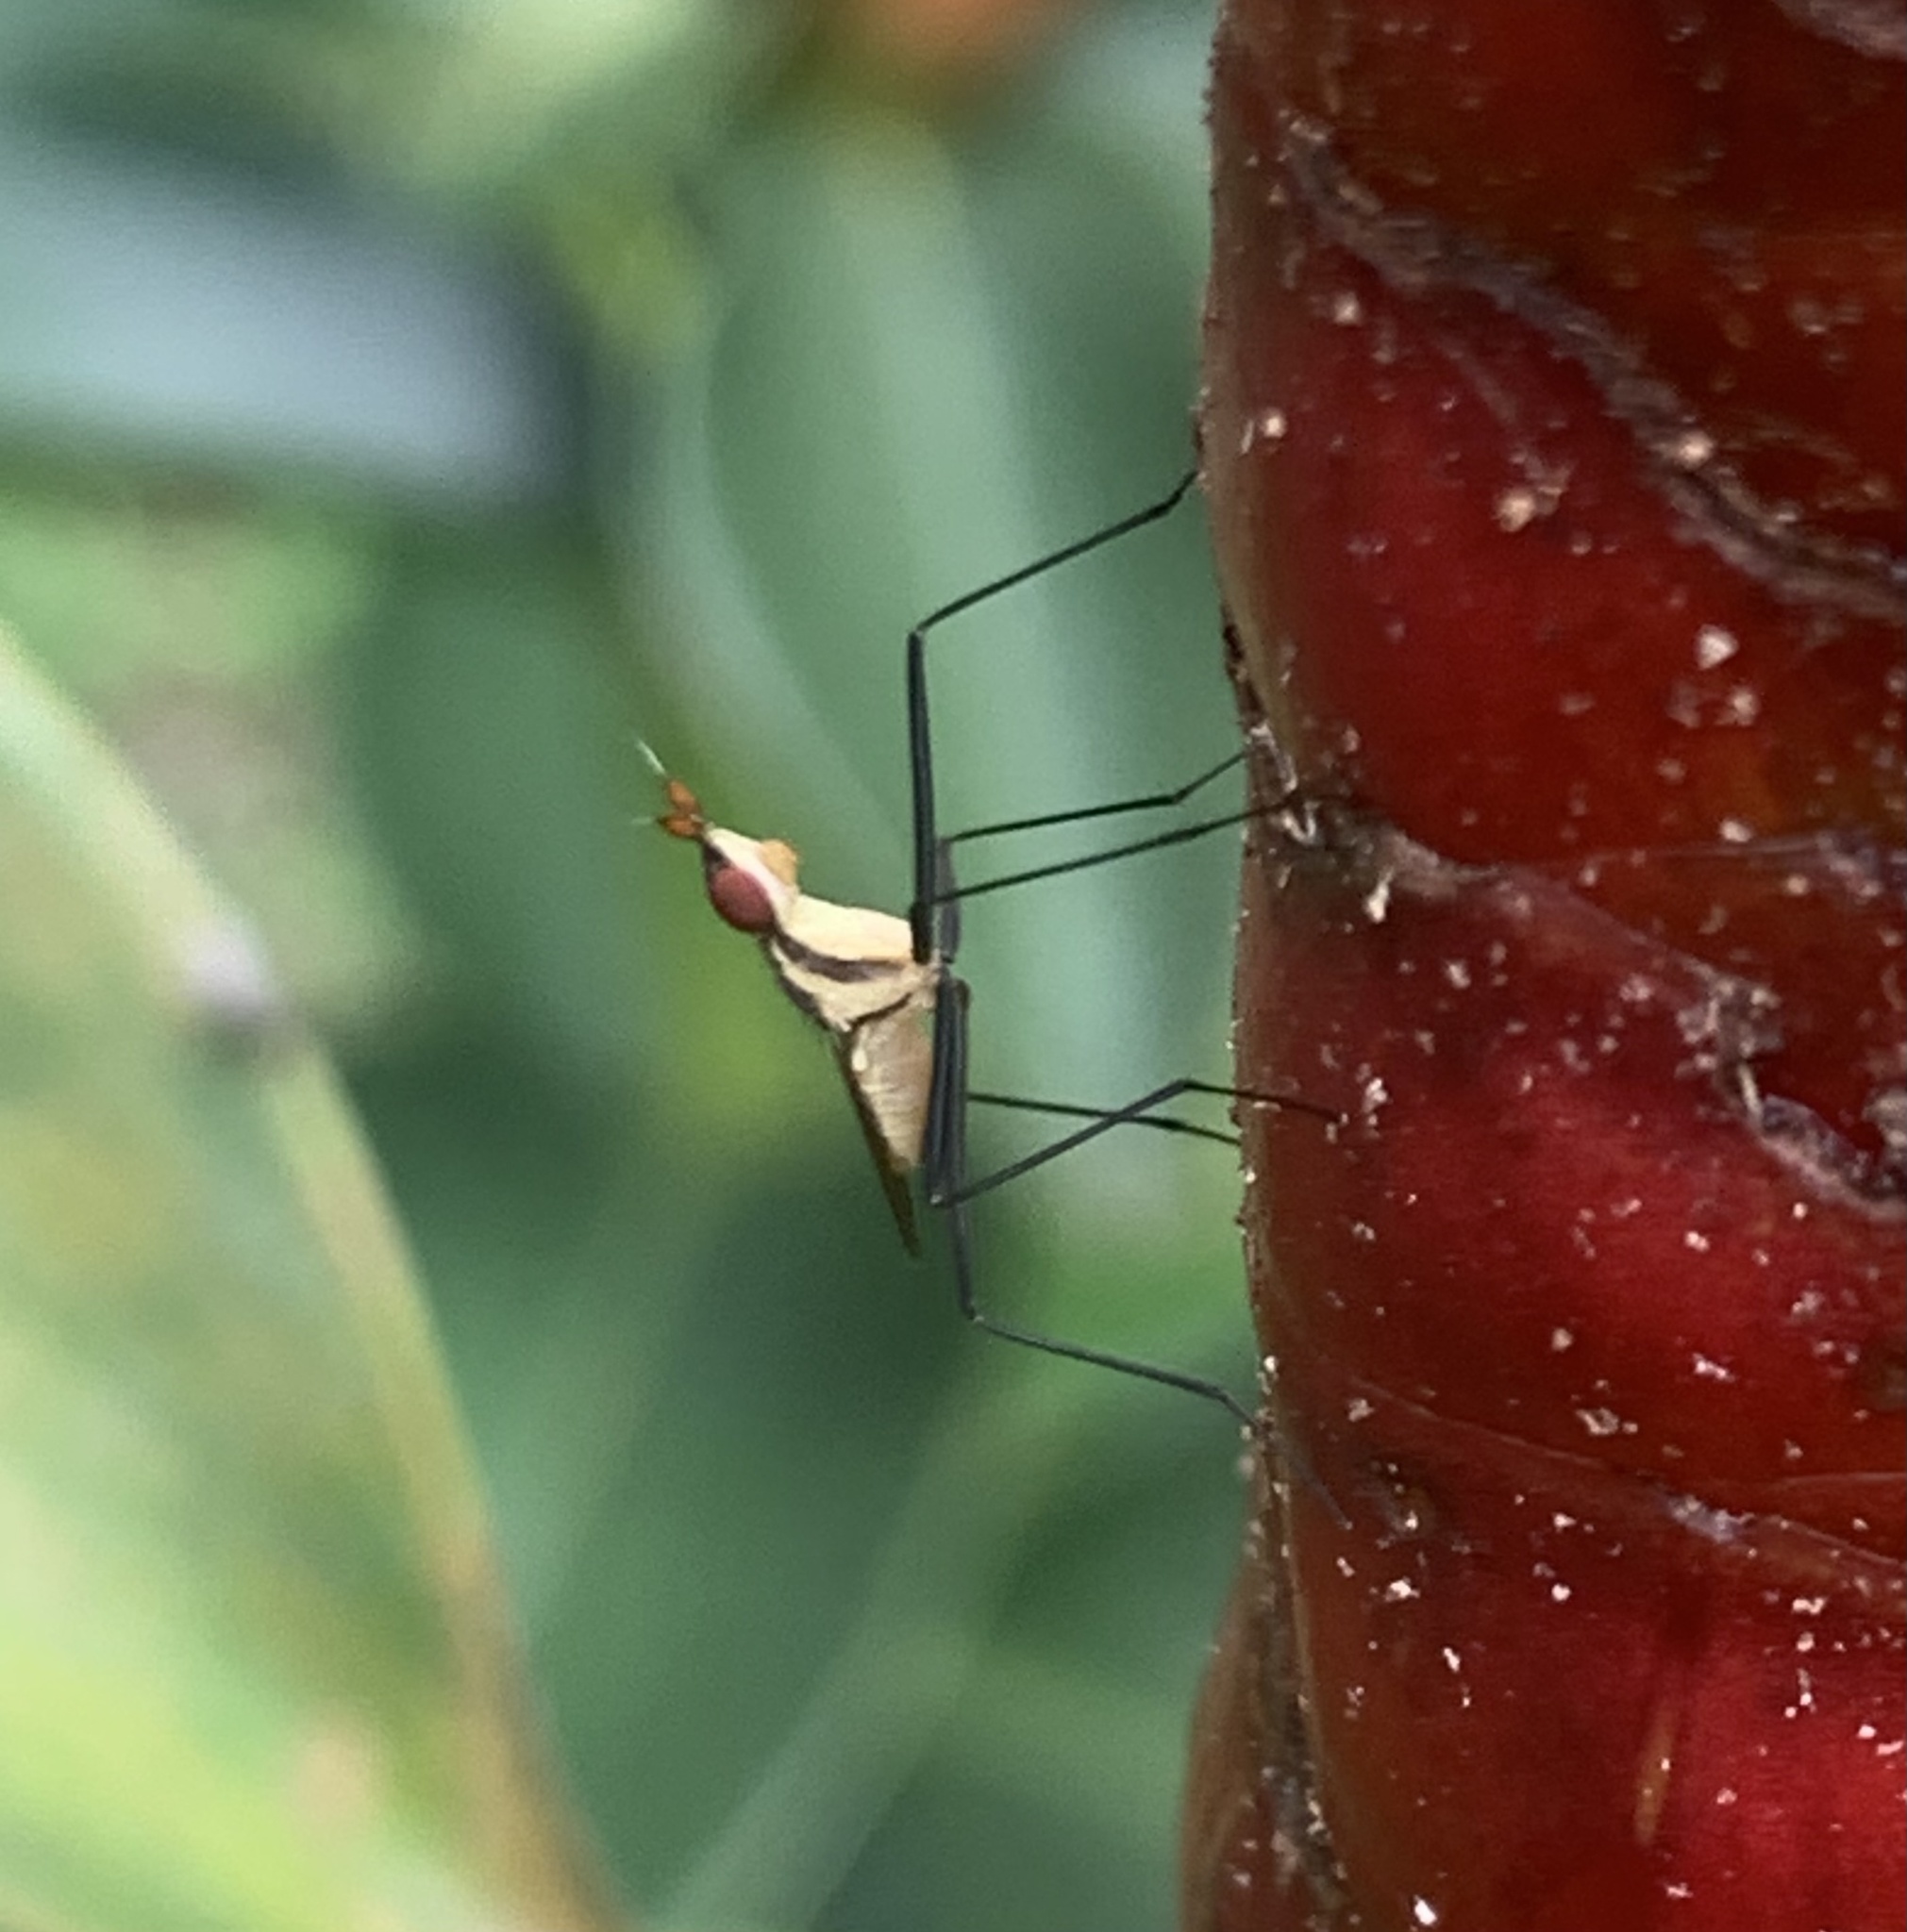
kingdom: Animalia
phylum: Arthropoda
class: Insecta
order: Diptera
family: Neriidae
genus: Telostylinus
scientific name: Telostylinus lineolatus
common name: Banana stalk fly
